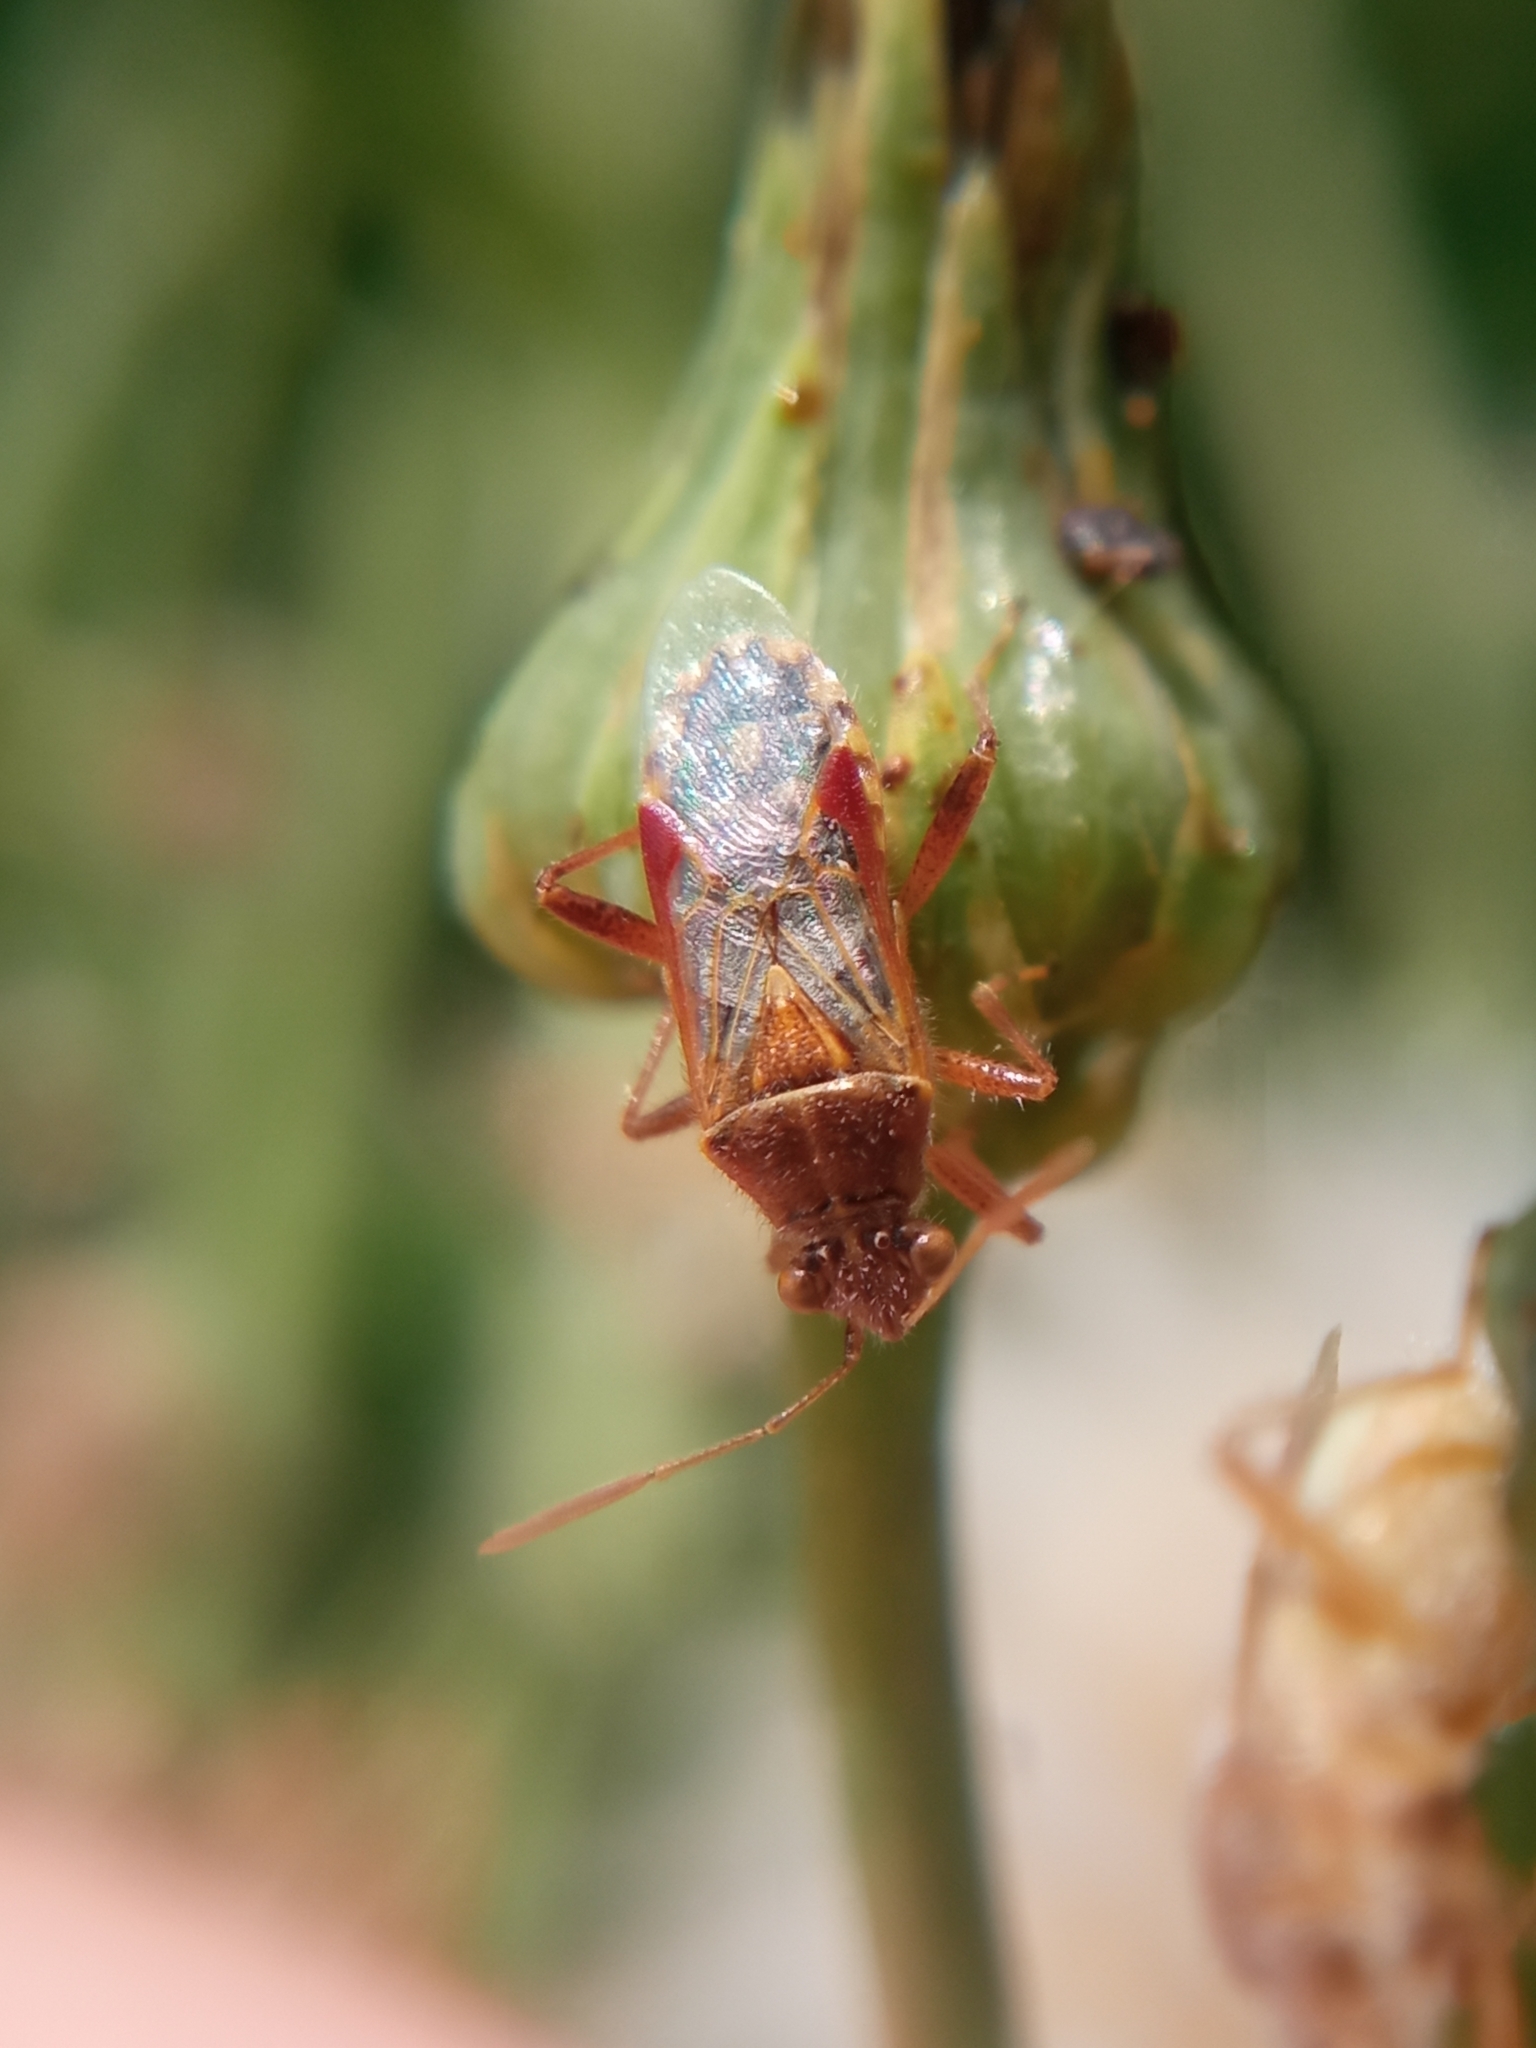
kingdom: Animalia
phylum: Arthropoda
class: Insecta
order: Hemiptera
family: Rhopalidae
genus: Liorhyssus
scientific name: Liorhyssus hyalinus
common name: Scentless plant bug
